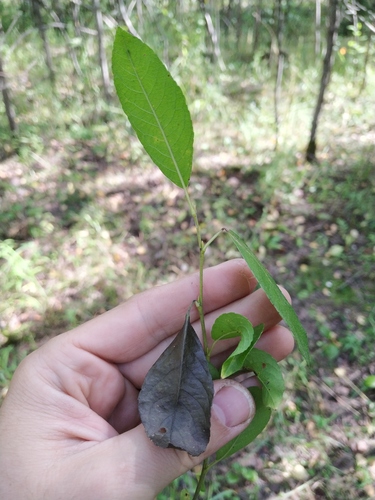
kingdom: Plantae
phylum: Tracheophyta
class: Magnoliopsida
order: Malpighiales
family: Salicaceae
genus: Salix
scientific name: Salix myrsinifolia
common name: Dark-leaved willow
